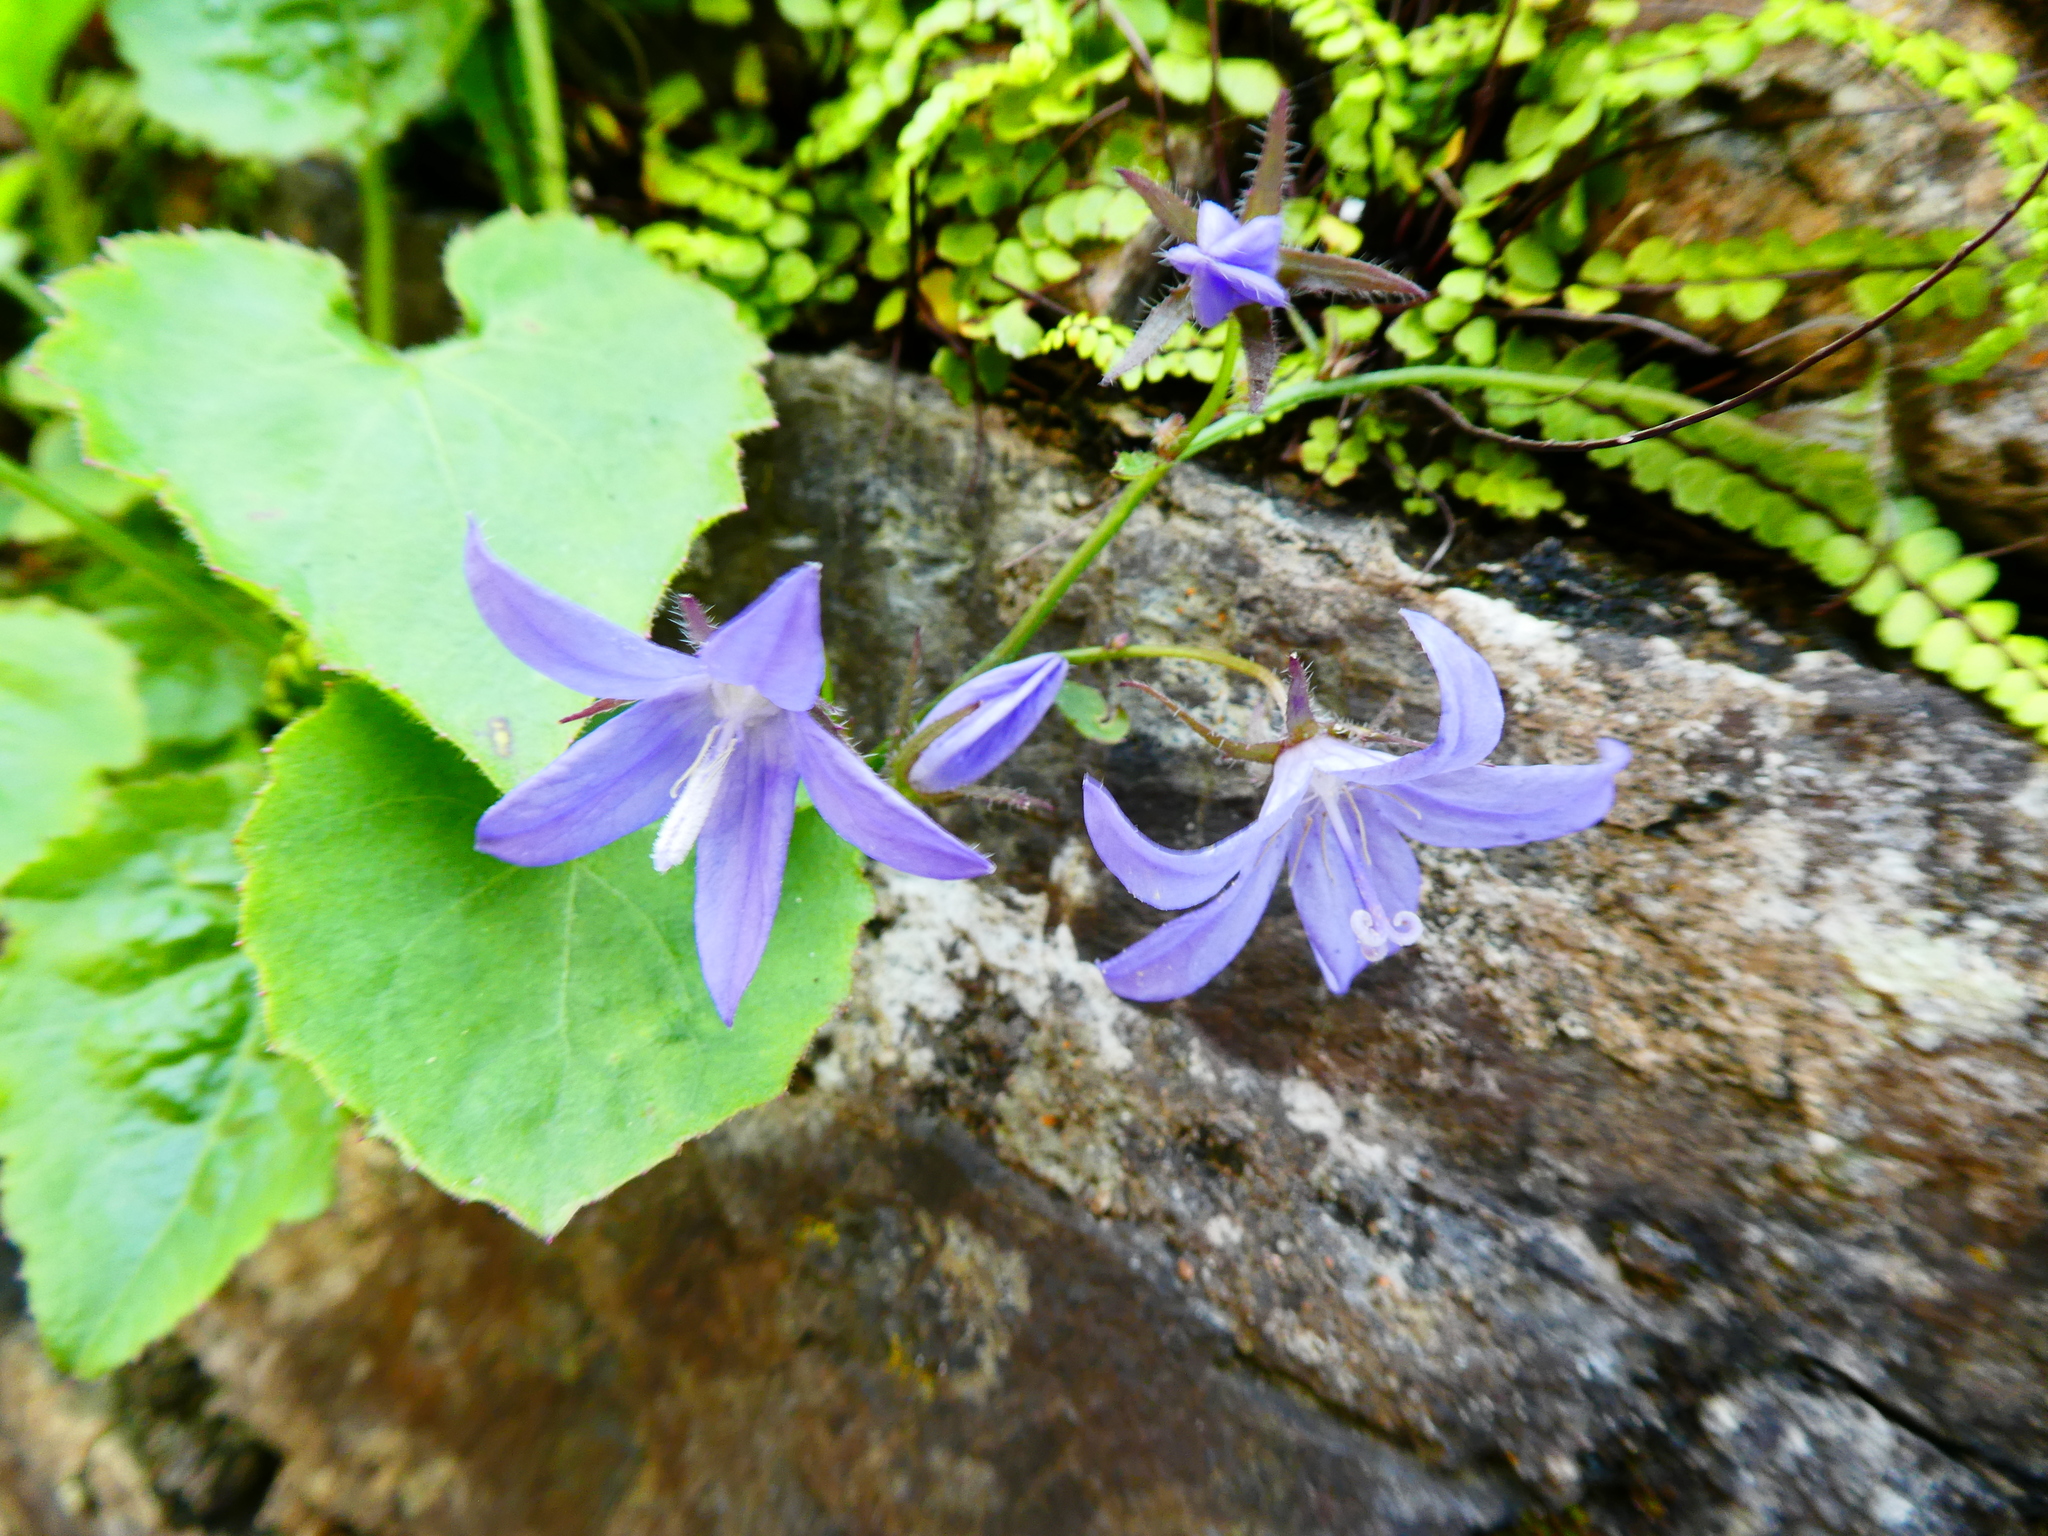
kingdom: Plantae
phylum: Tracheophyta
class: Magnoliopsida
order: Asterales
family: Campanulaceae
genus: Campanula
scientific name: Campanula poscharskyana
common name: Trailing bellflower
